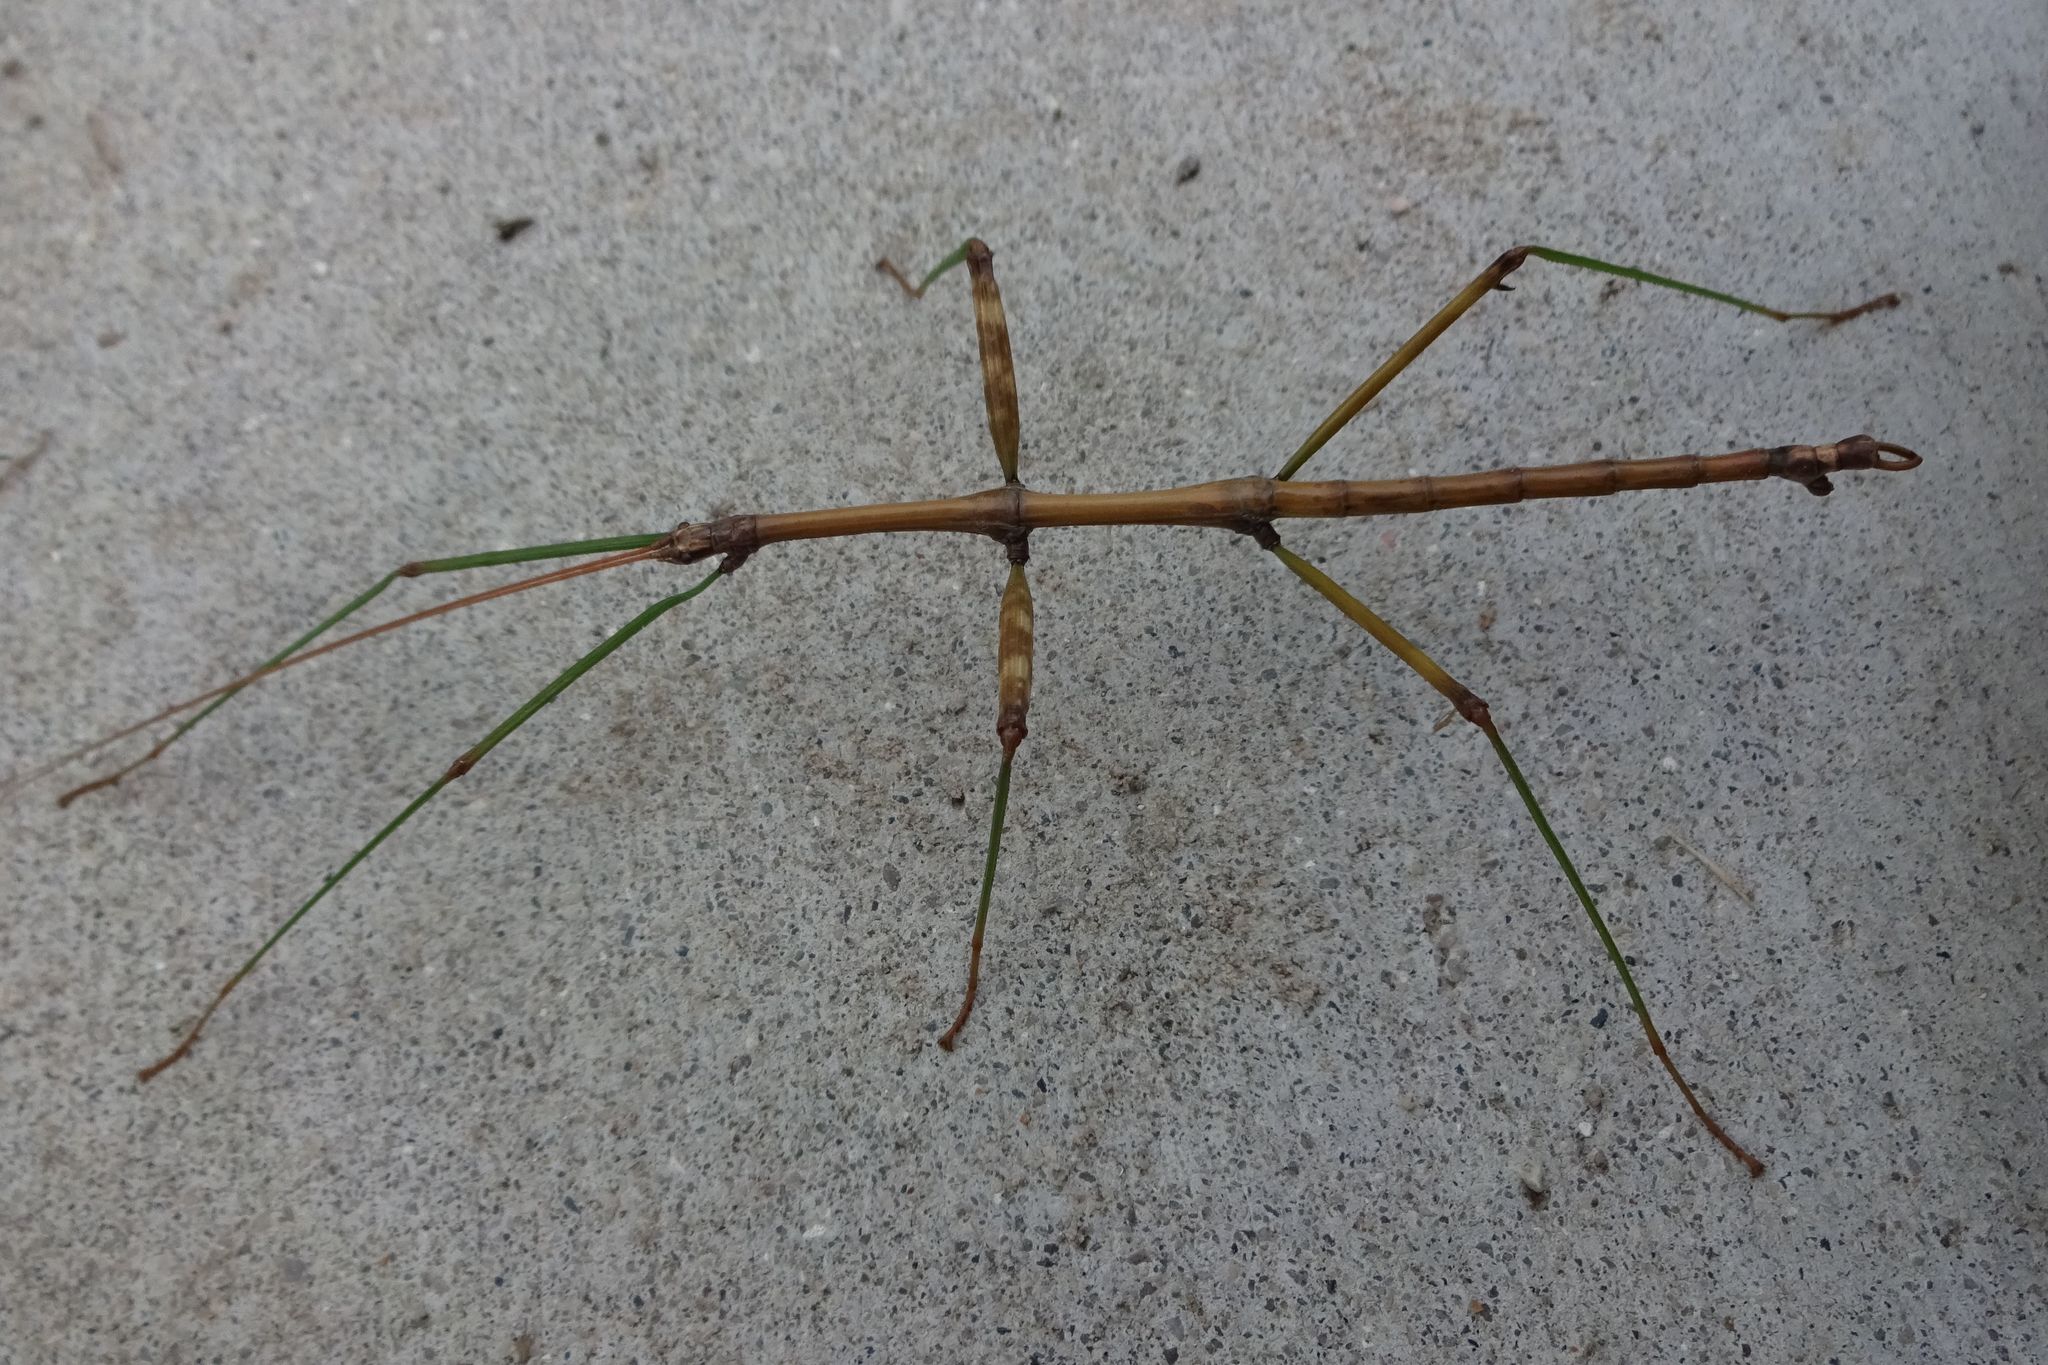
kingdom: Animalia
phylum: Arthropoda
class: Insecta
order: Phasmida
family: Diapheromeridae
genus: Diapheromera
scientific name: Diapheromera femorata
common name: Common american walkingstick
